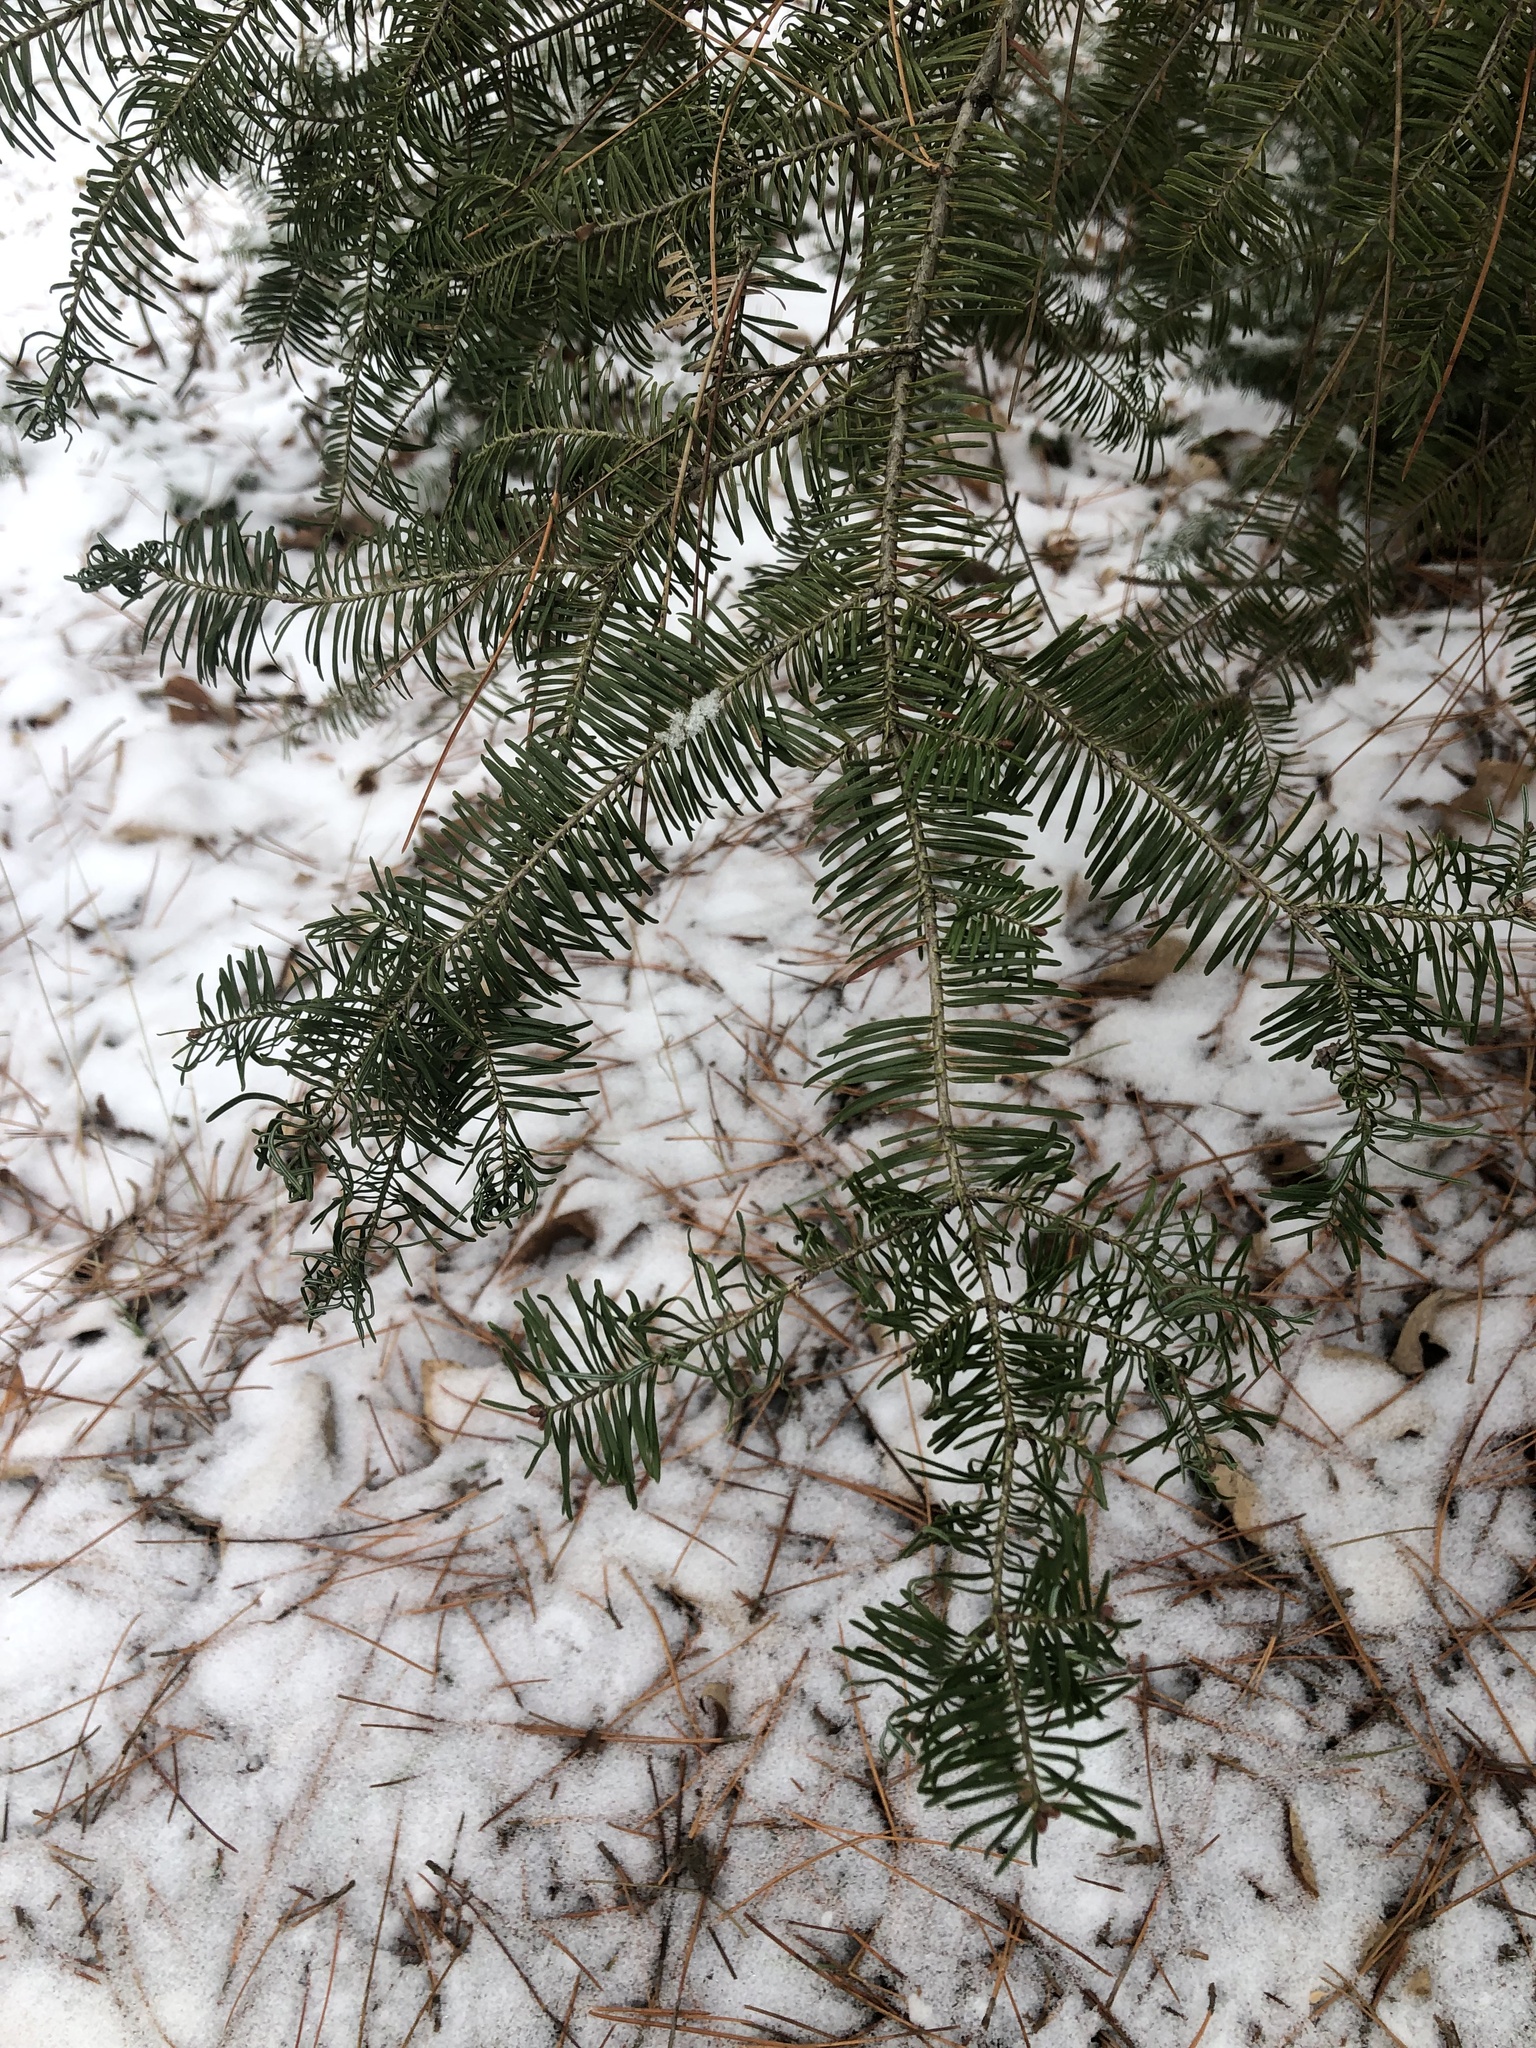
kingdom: Plantae
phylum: Tracheophyta
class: Pinopsida
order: Pinales
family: Pinaceae
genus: Abies
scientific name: Abies balsamea
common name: Balsam fir
